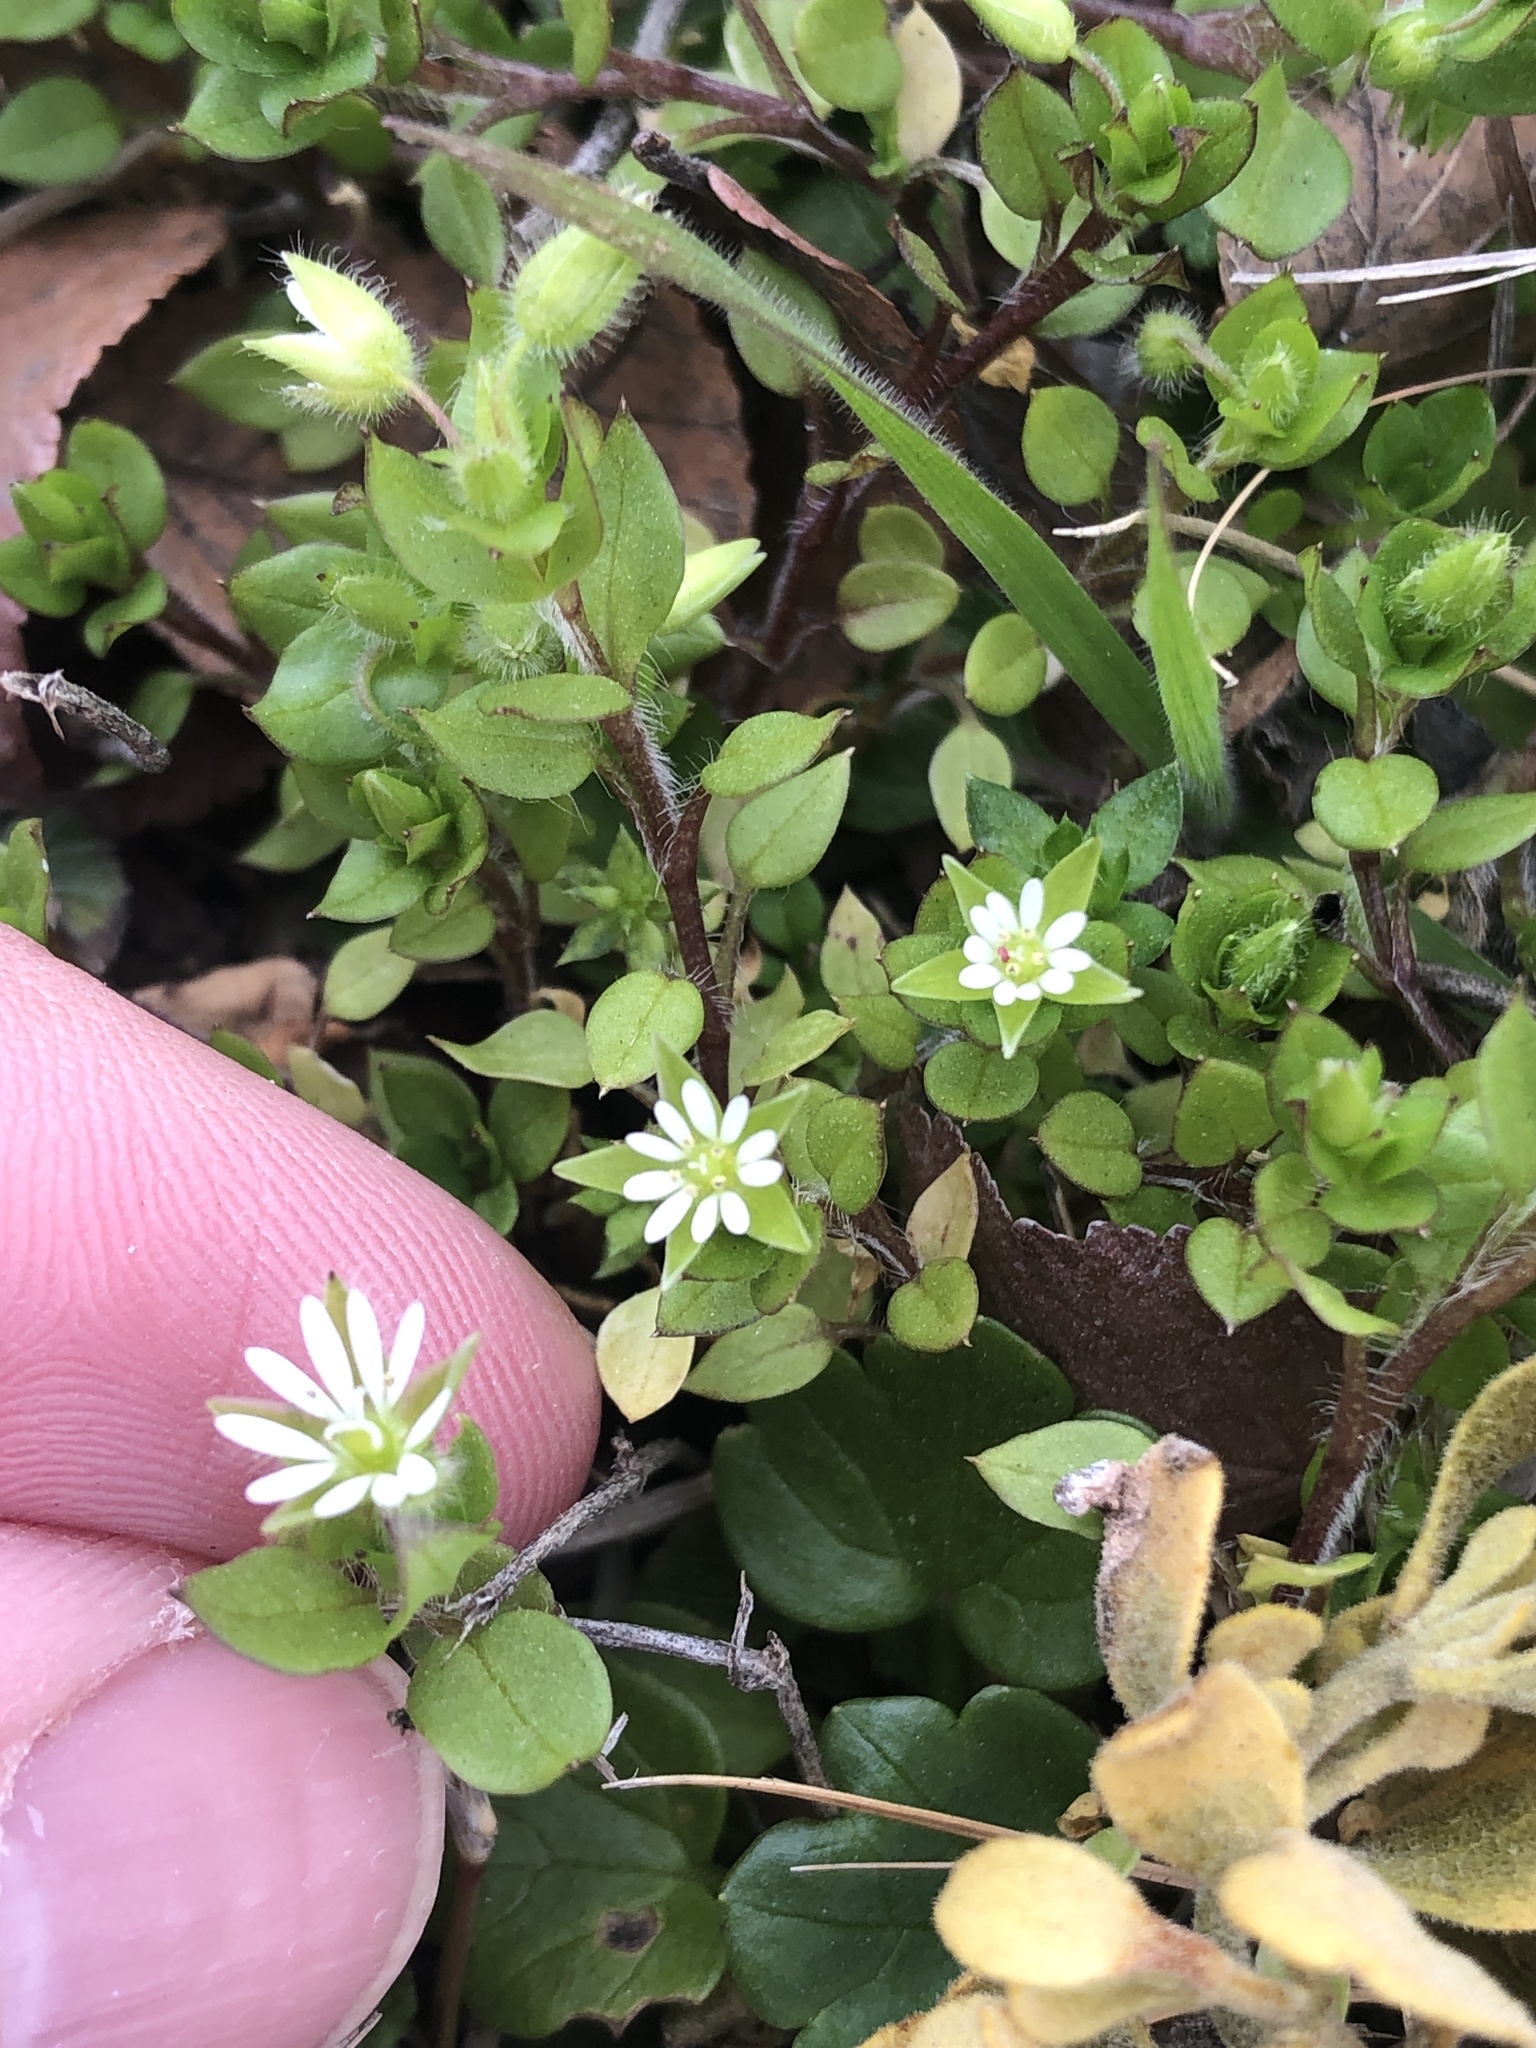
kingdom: Plantae
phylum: Tracheophyta
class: Magnoliopsida
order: Caryophyllales
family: Caryophyllaceae
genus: Stellaria
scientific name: Stellaria media
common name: Common chickweed
